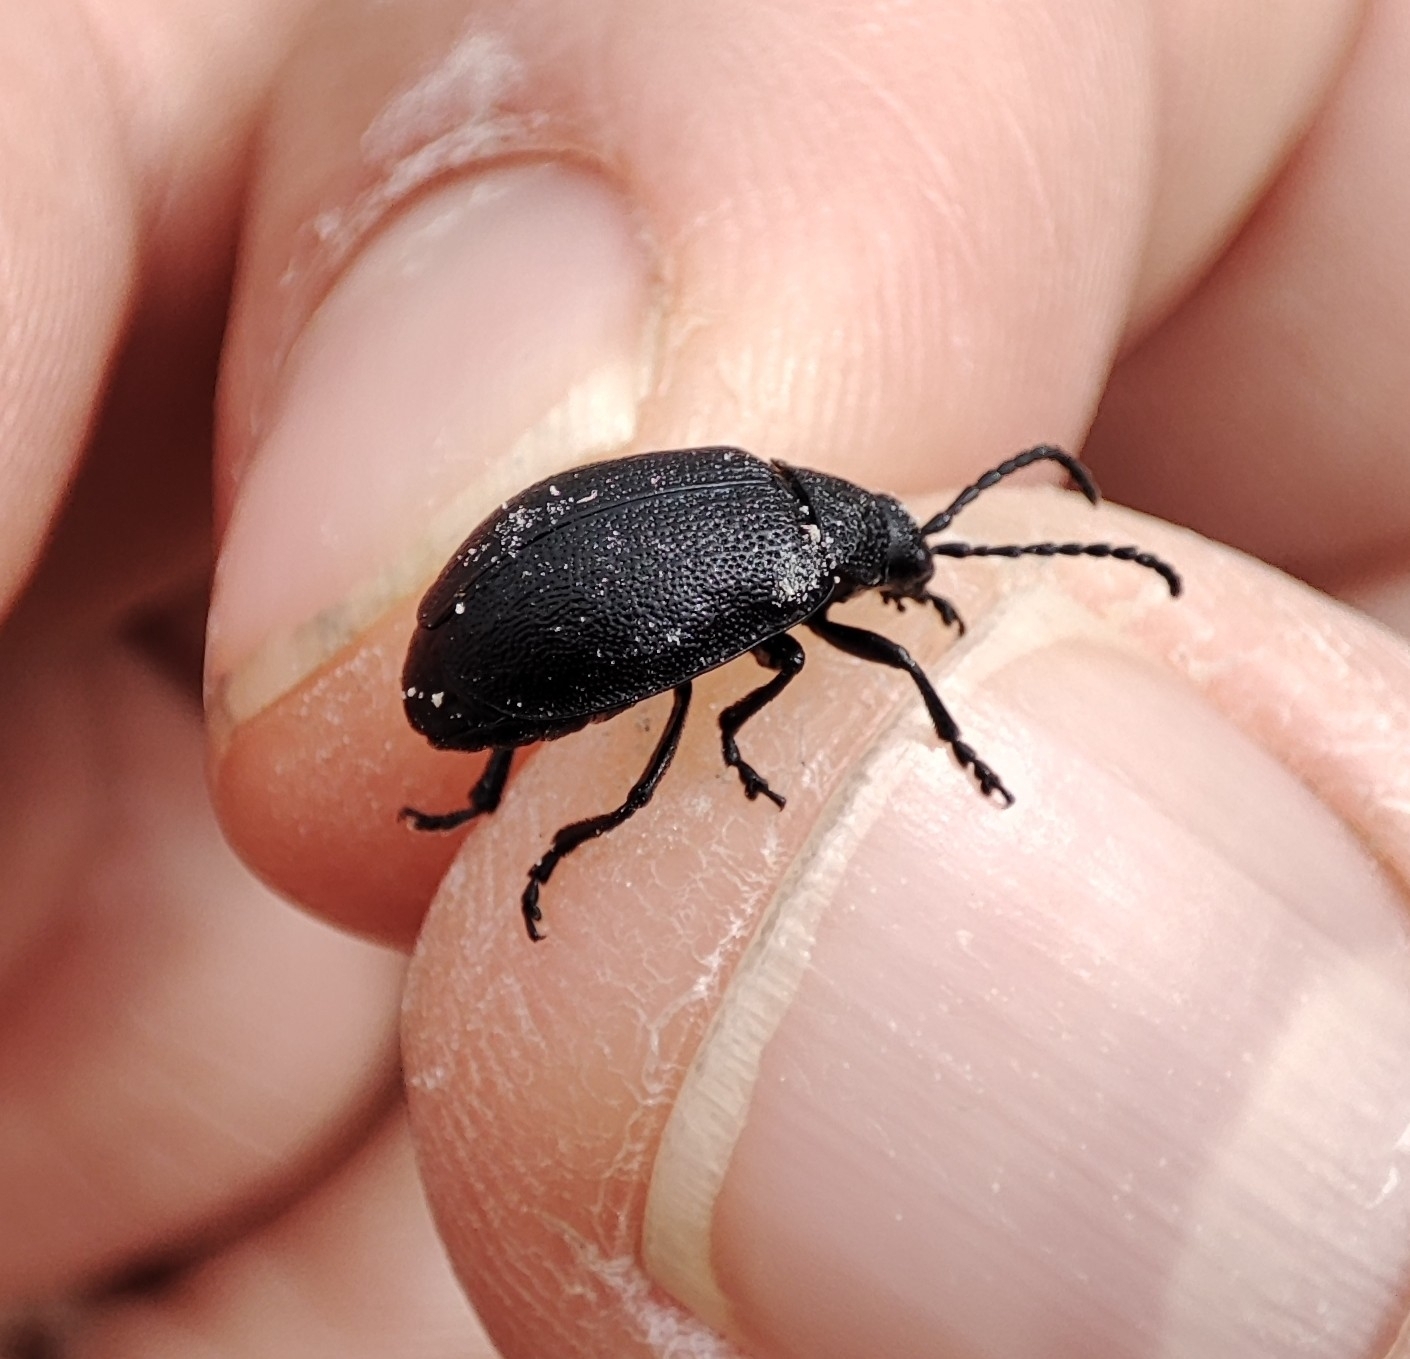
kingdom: Animalia
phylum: Arthropoda
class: Insecta
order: Coleoptera
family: Chrysomelidae
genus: Galeruca
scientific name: Galeruca tanaceti
